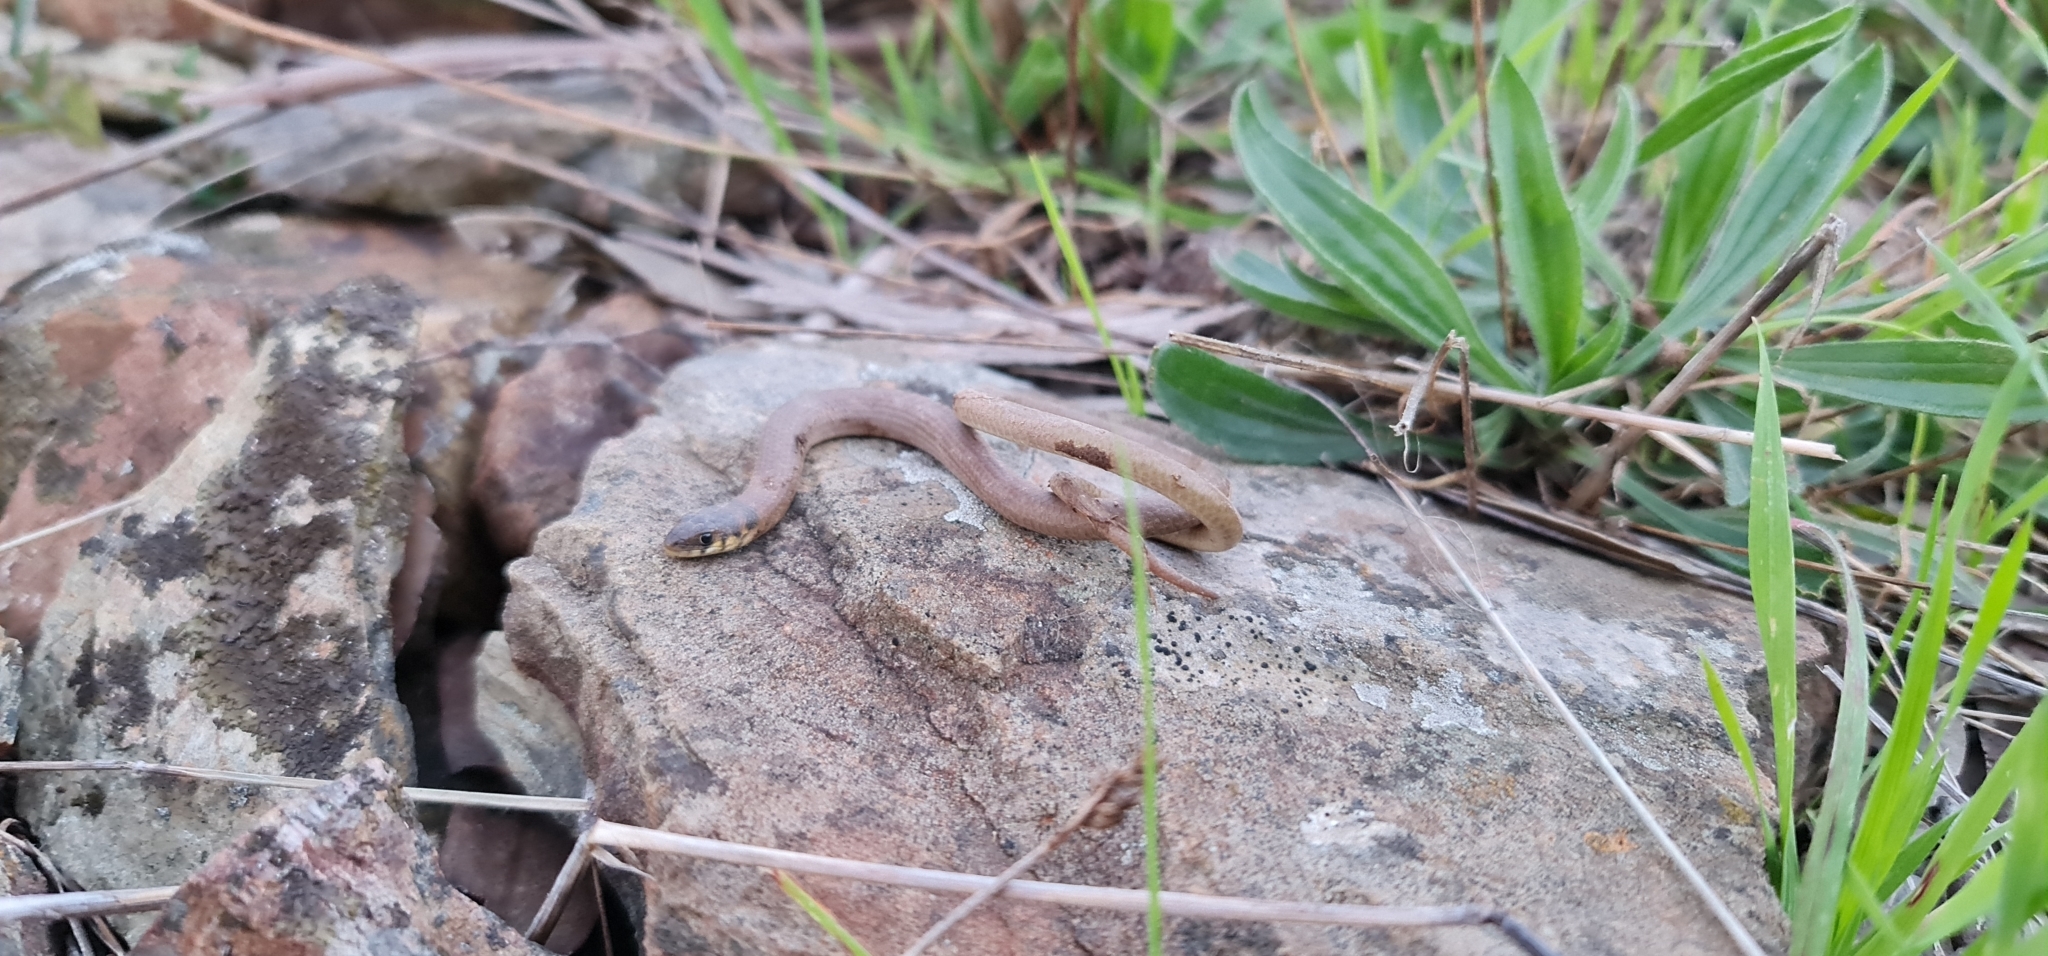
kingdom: Animalia
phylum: Chordata
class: Squamata
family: Pygopodidae
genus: Delma
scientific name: Delma molleri
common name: Gulfs delma
